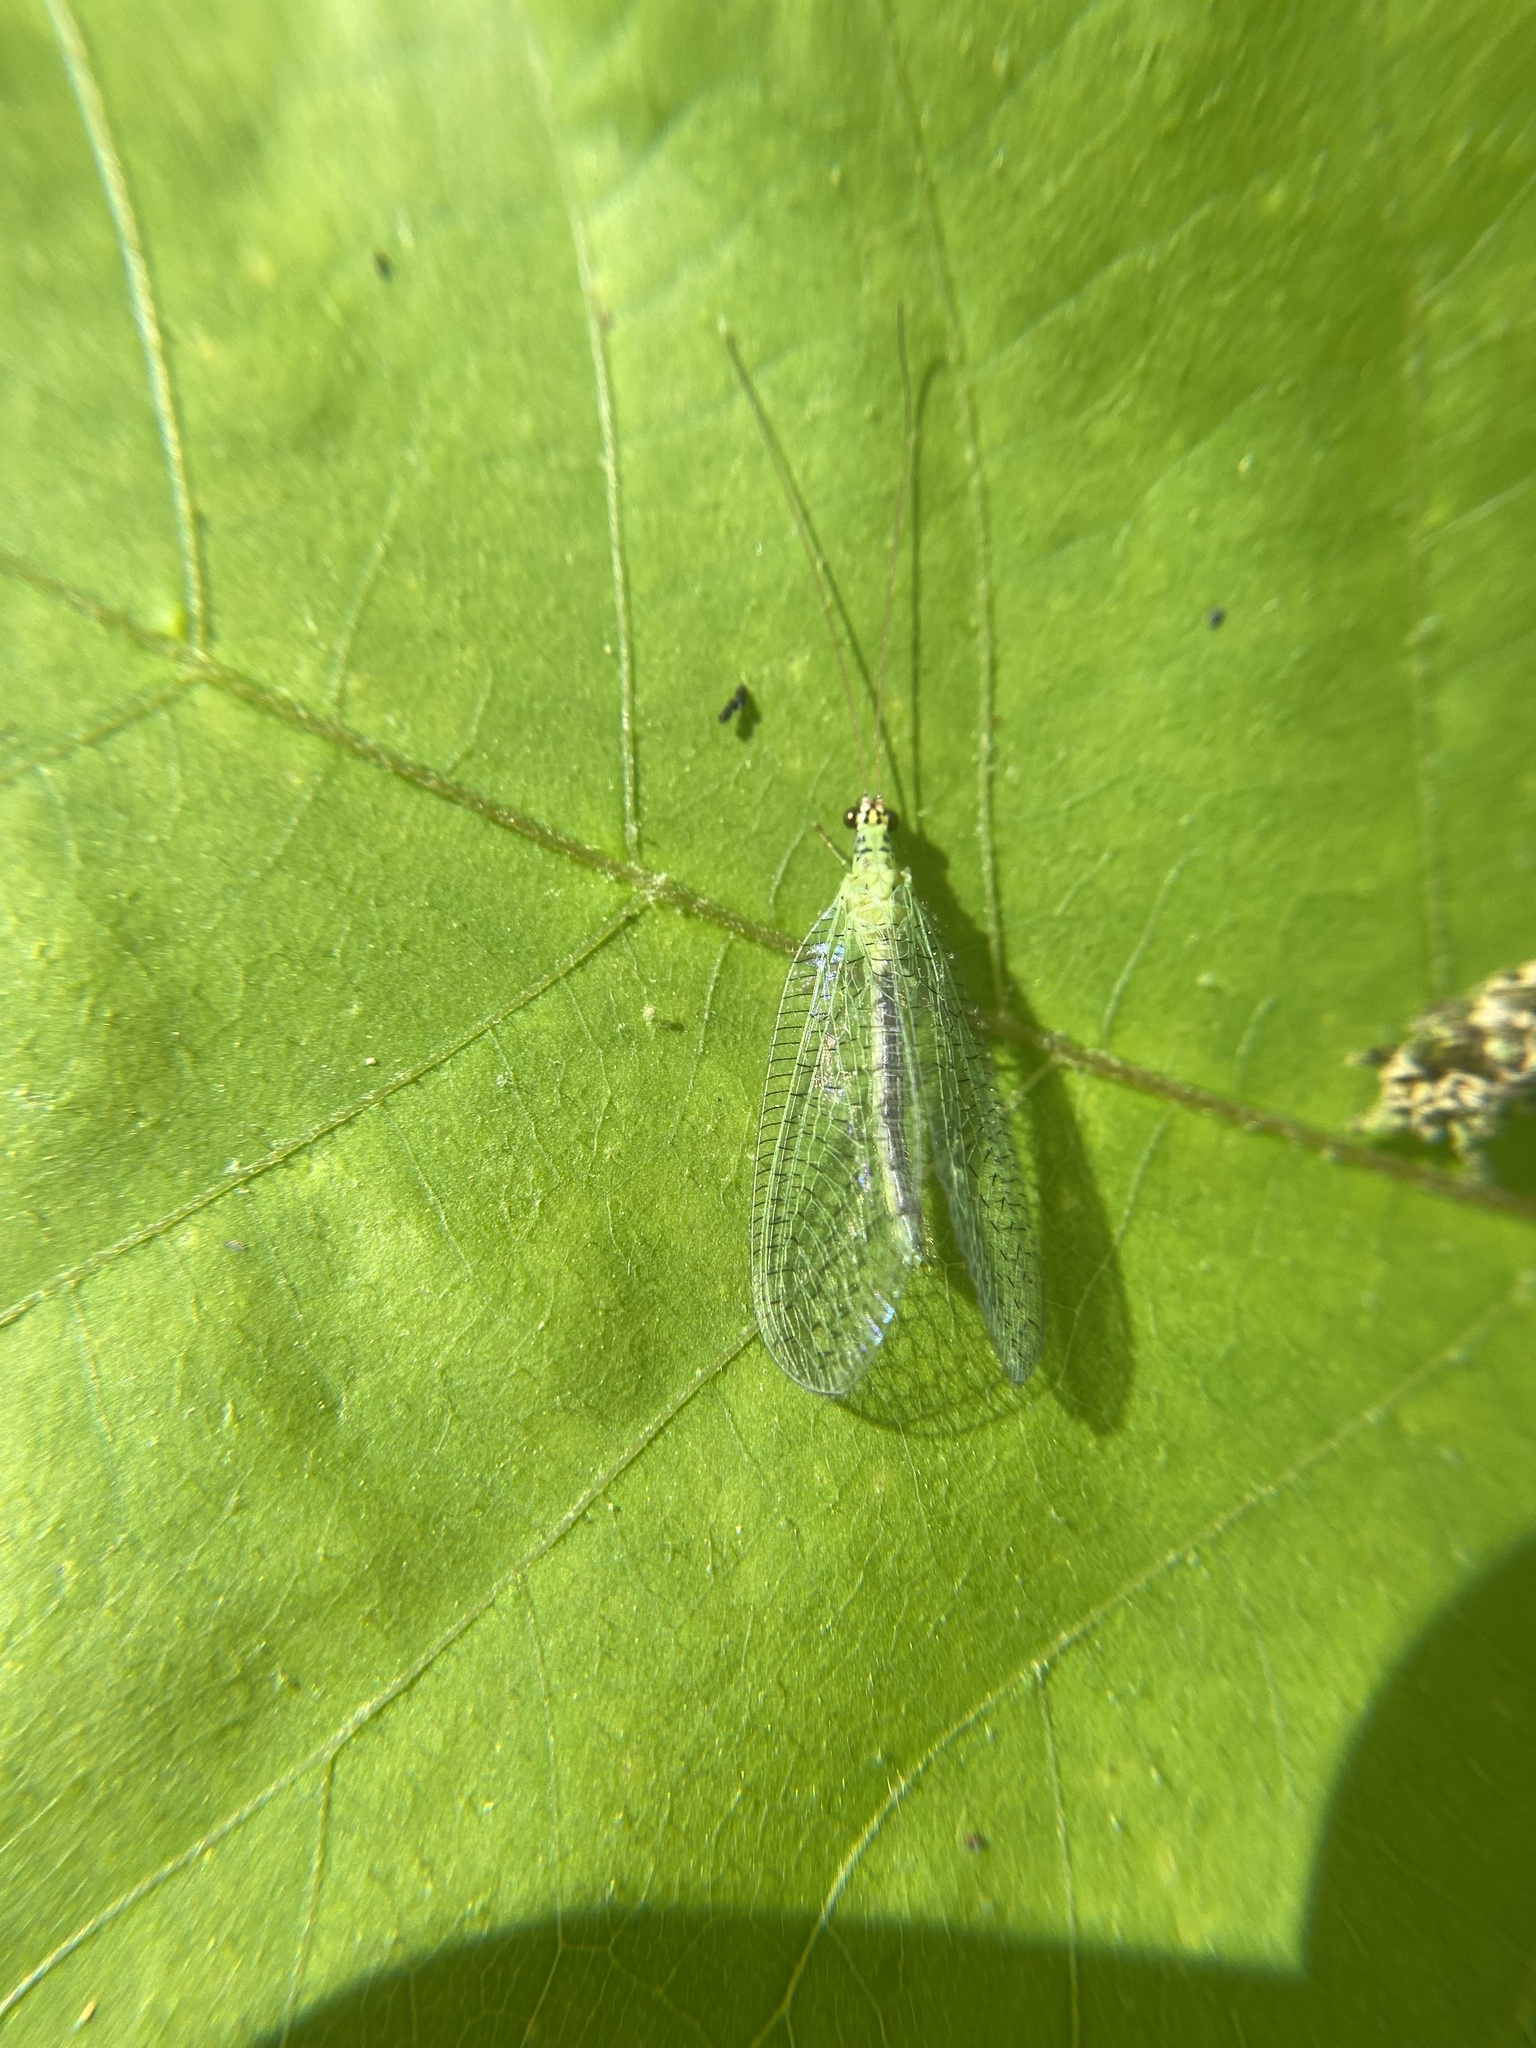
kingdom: Animalia
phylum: Arthropoda
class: Insecta
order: Neuroptera
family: Chrysopidae
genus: Chrysopa
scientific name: Chrysopa oculata
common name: Golden-eyed lacewing
